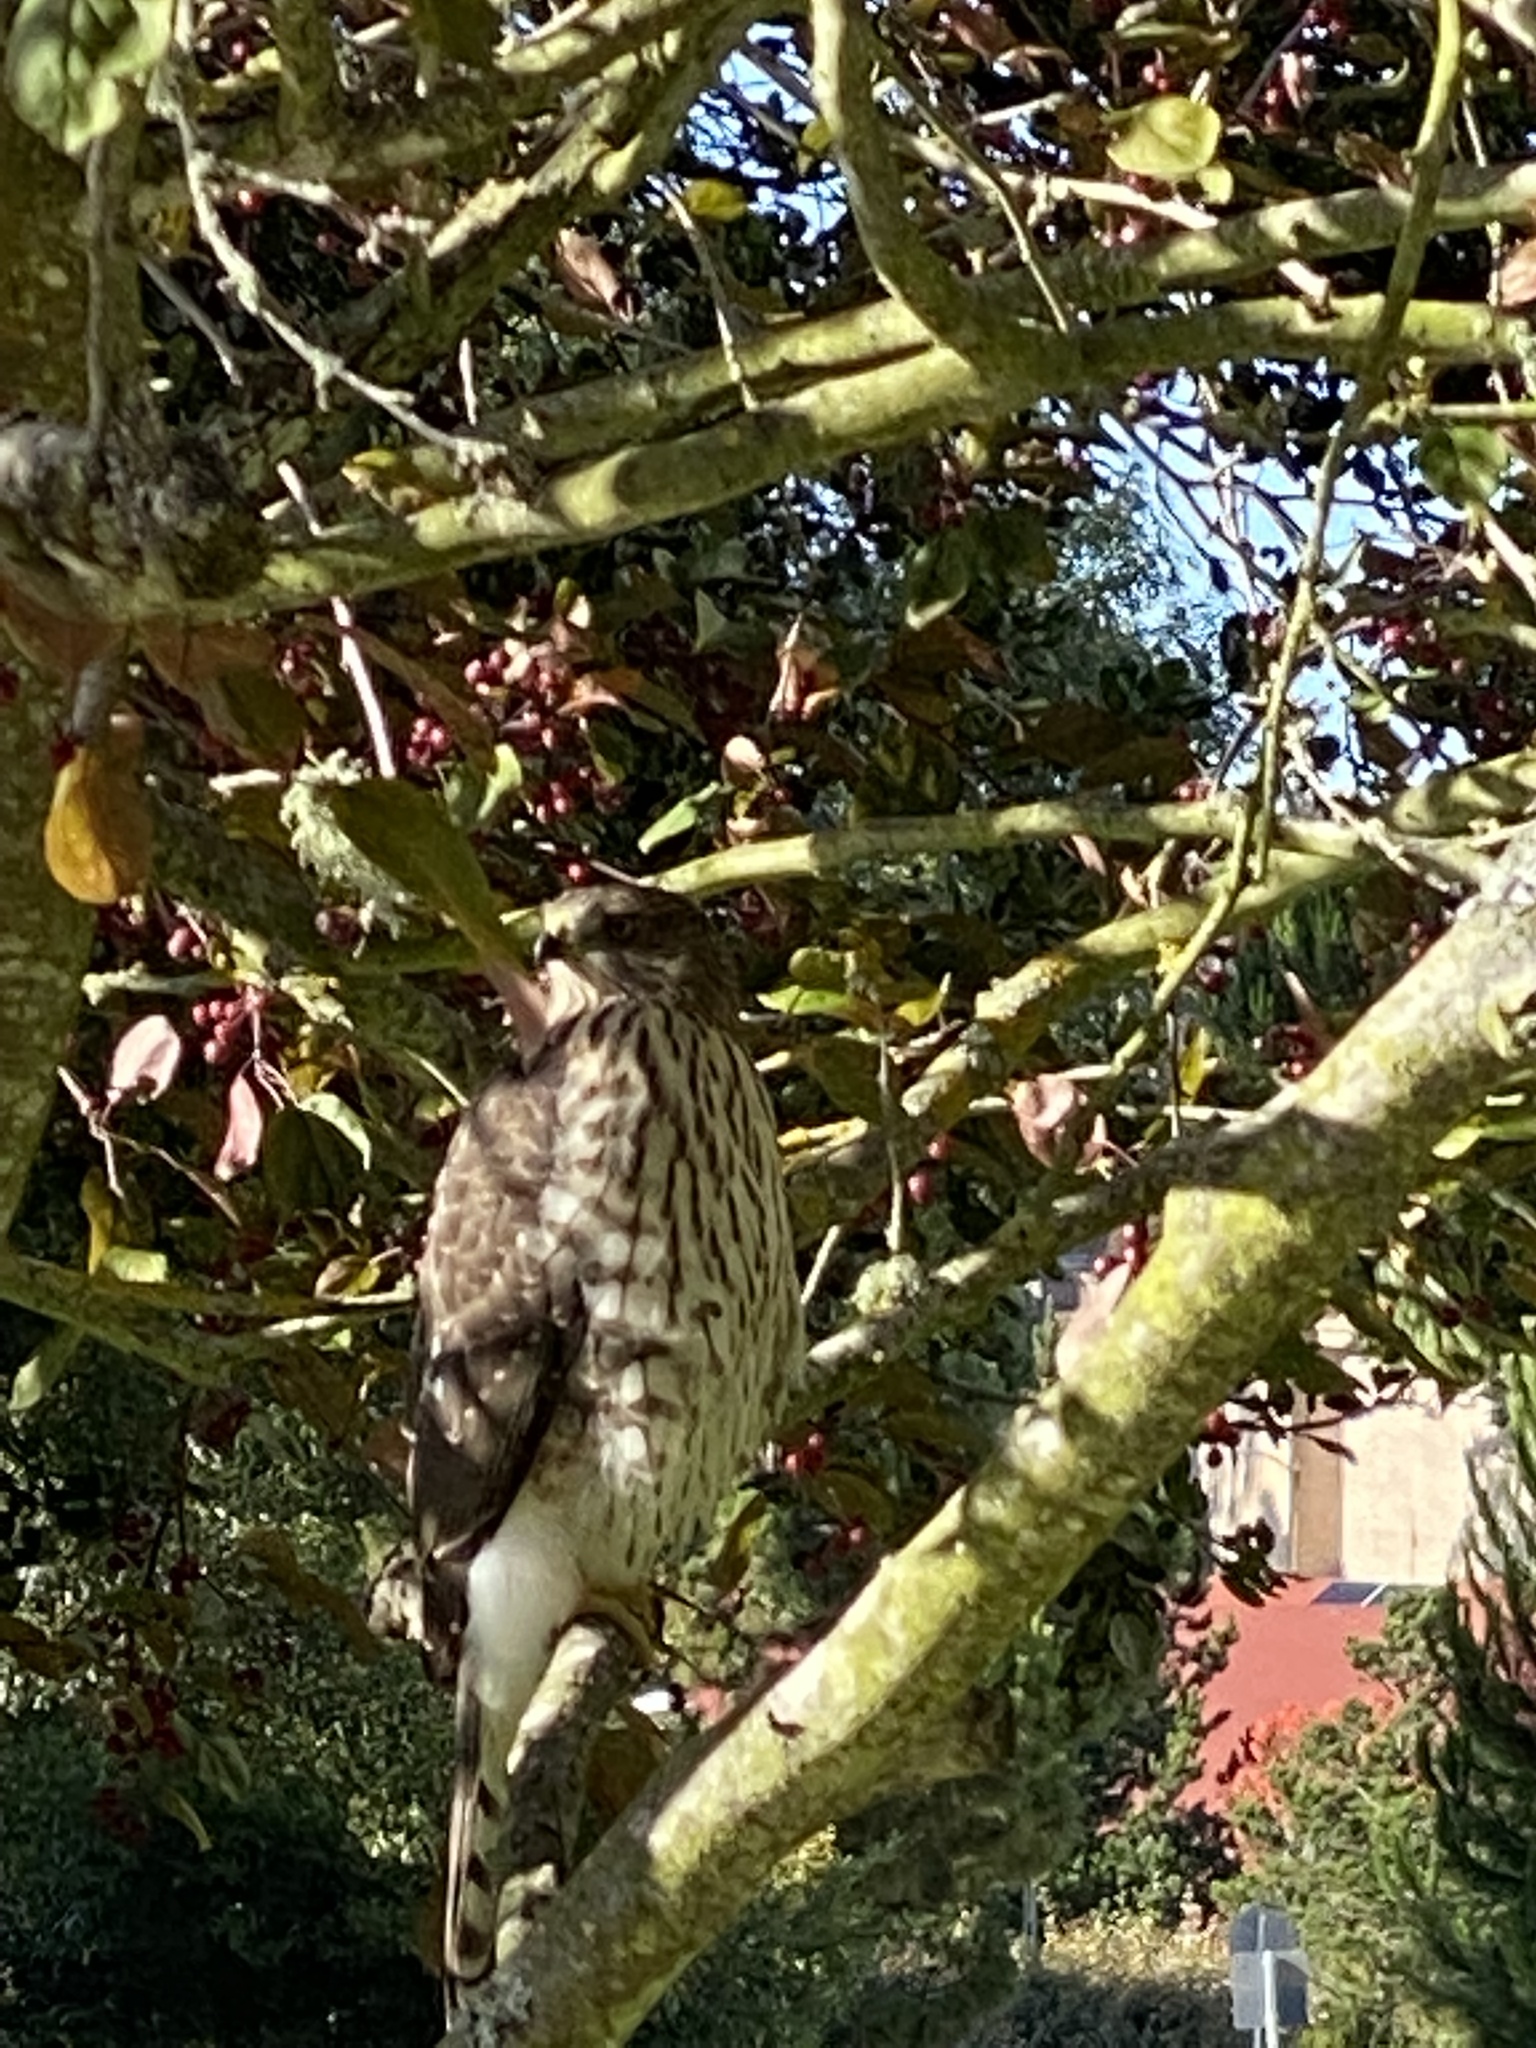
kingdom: Animalia
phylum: Chordata
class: Aves
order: Accipitriformes
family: Accipitridae
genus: Accipiter
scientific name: Accipiter cooperii
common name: Cooper's hawk
